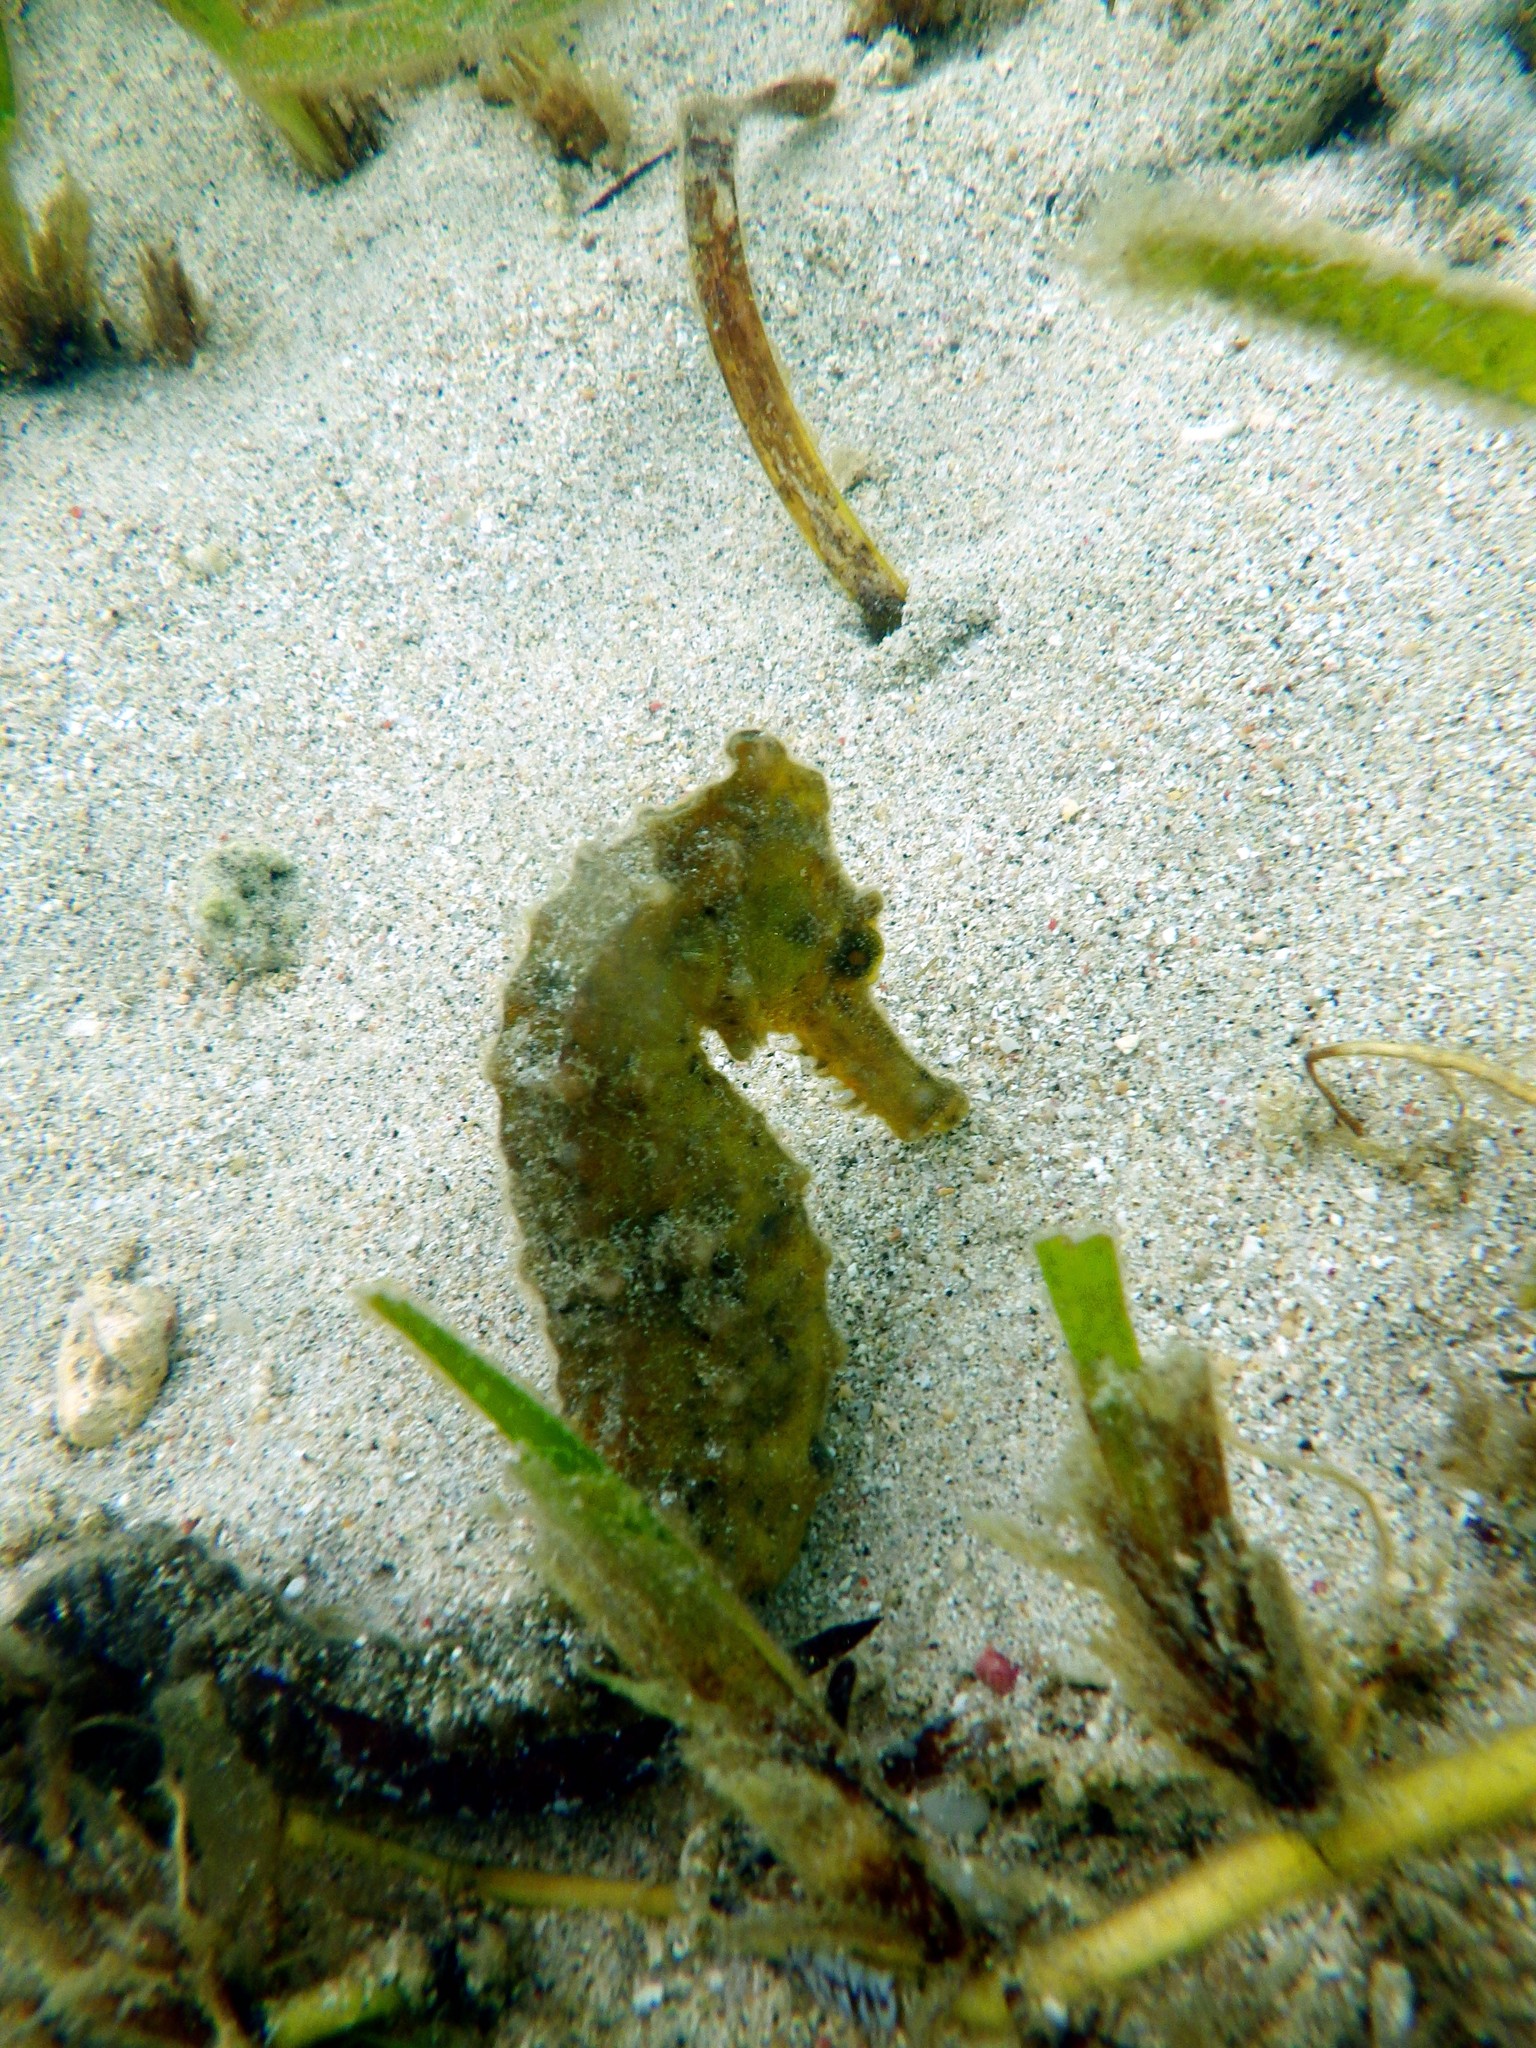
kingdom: Animalia
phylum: Chordata
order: Syngnathiformes
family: Syngnathidae
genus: Hippocampus
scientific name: Hippocampus kuda
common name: Spotted seahorse
